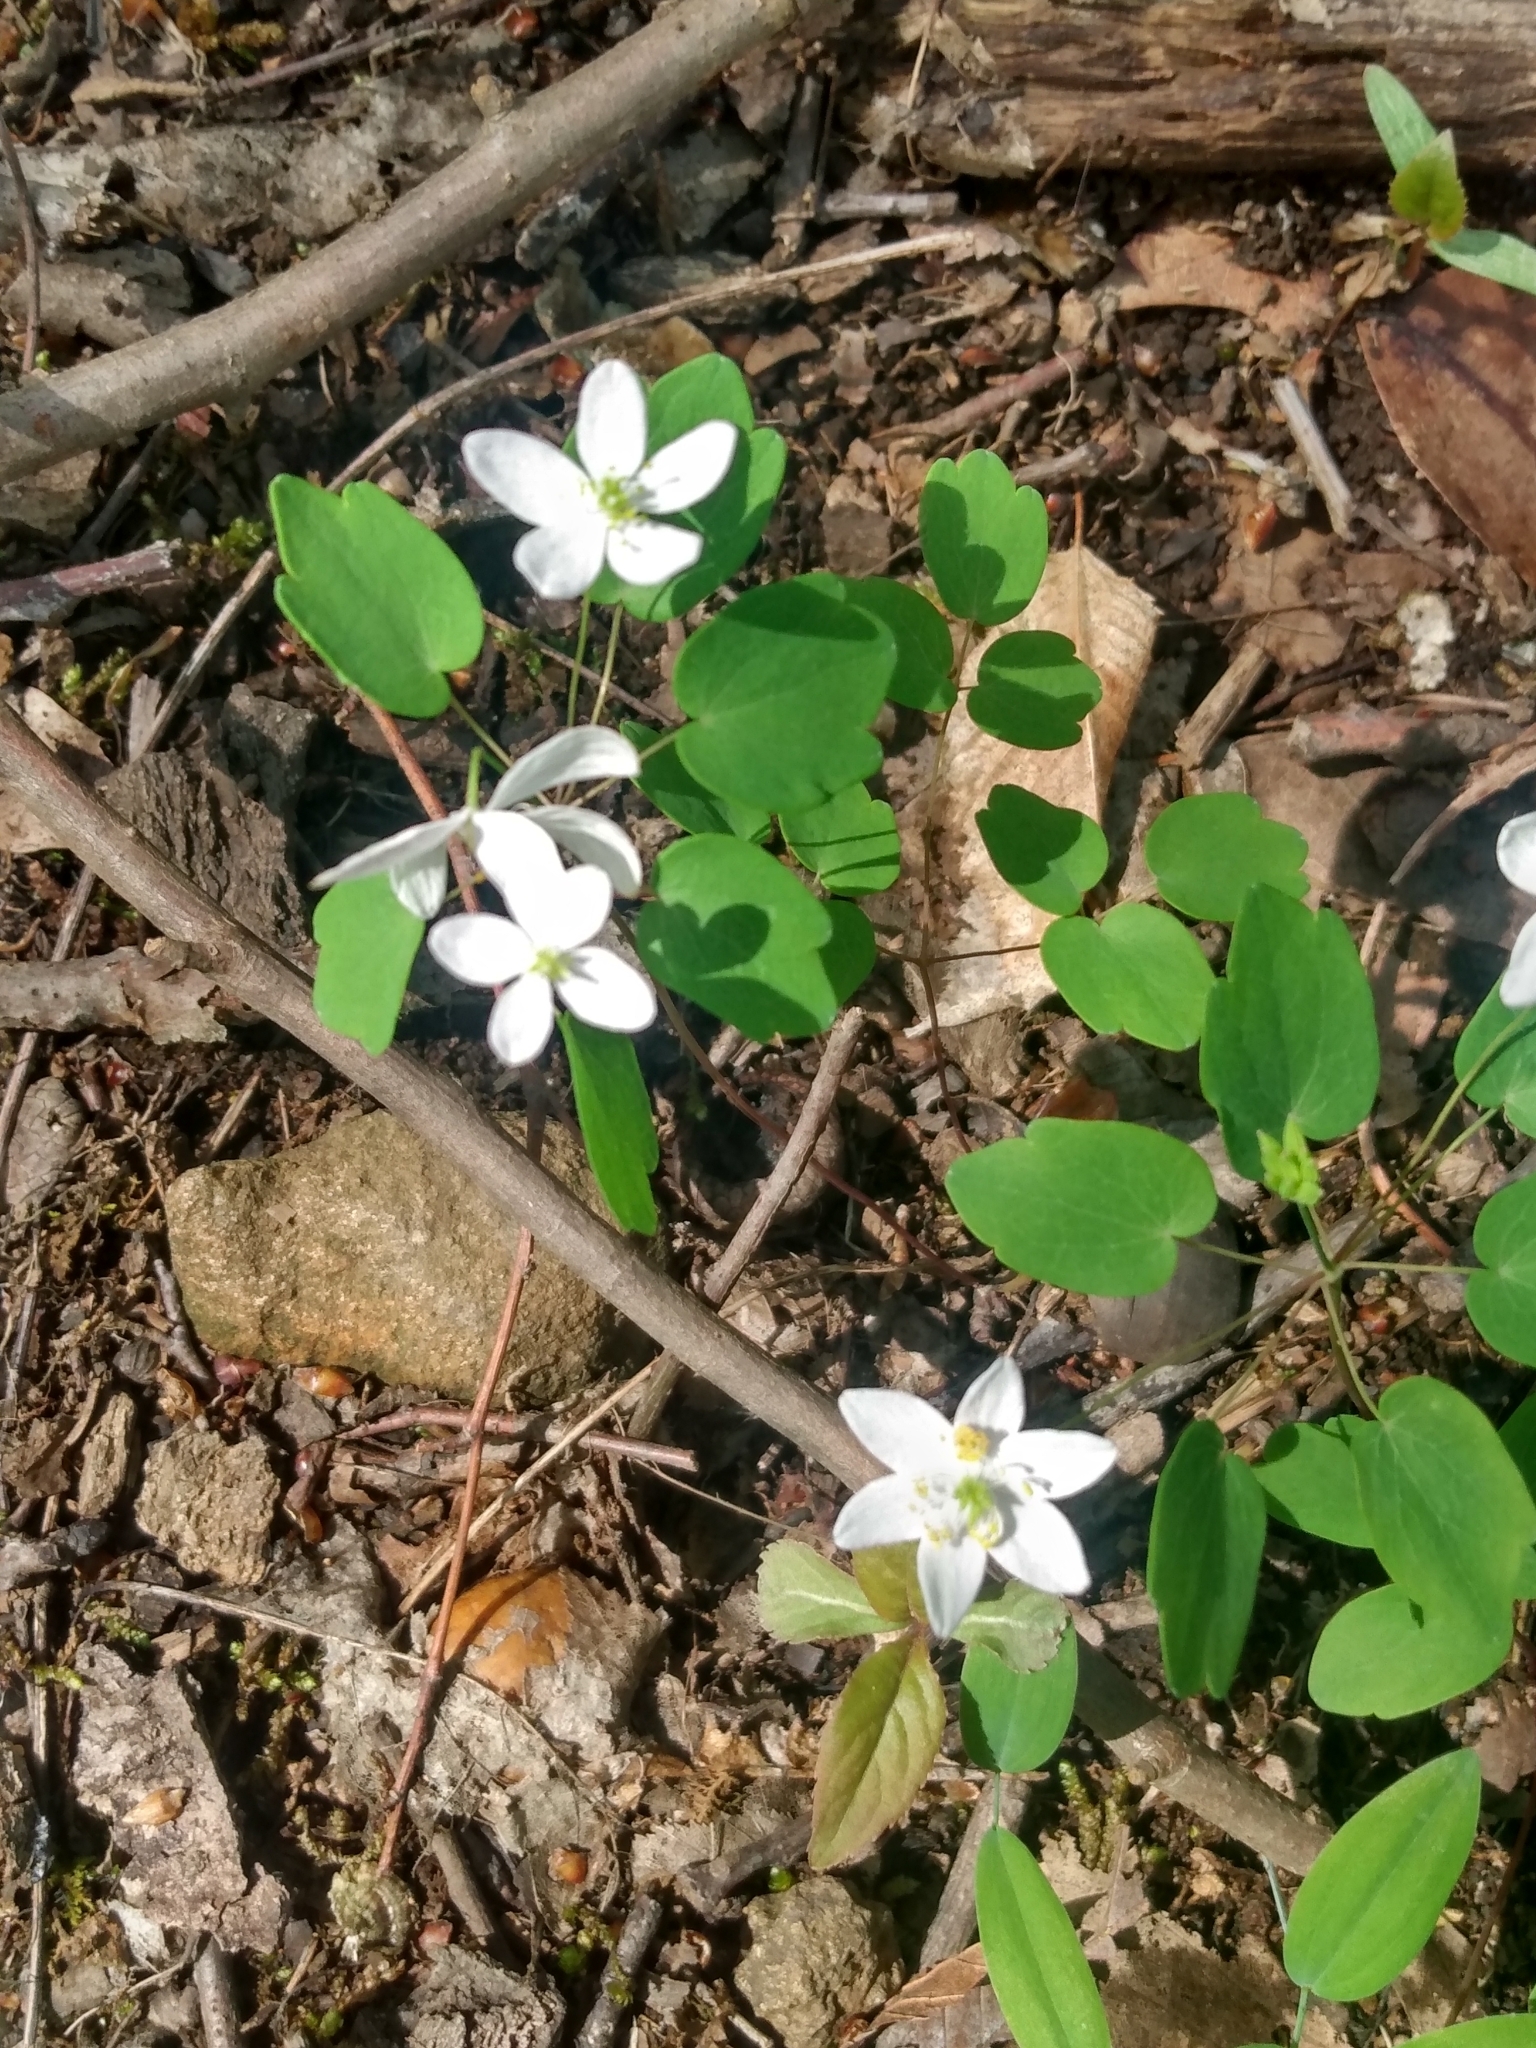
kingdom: Plantae
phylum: Tracheophyta
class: Magnoliopsida
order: Ranunculales
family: Ranunculaceae
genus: Thalictrum
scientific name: Thalictrum thalictroides
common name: Rue-anemone
